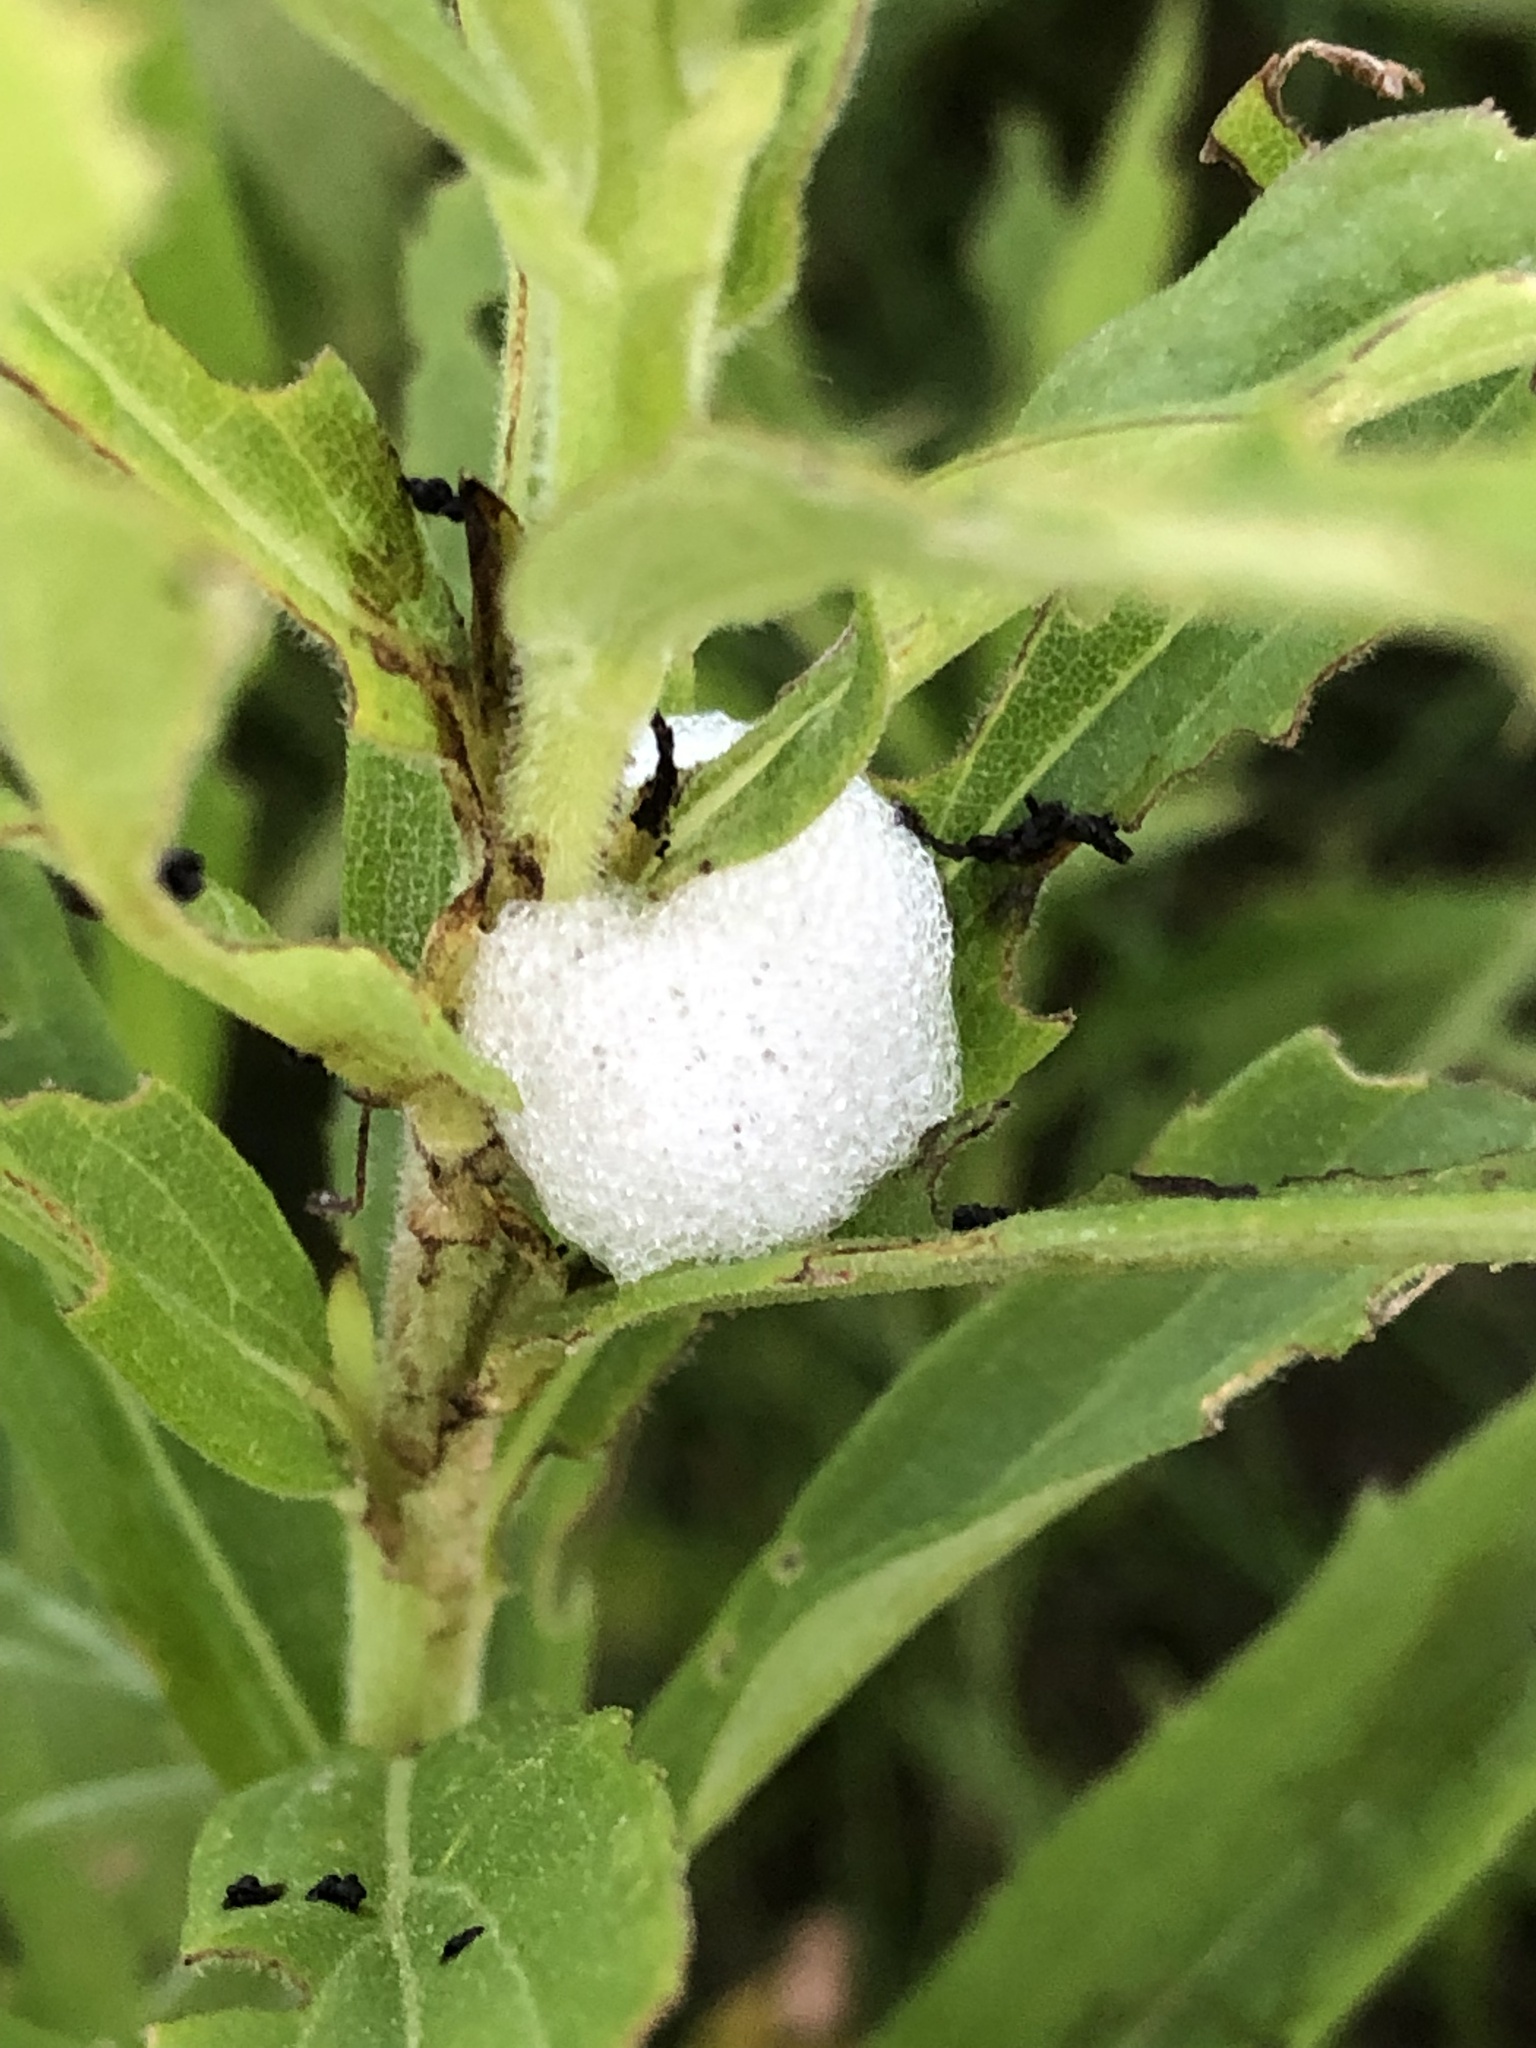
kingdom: Animalia
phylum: Arthropoda
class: Insecta
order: Hemiptera
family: Aphrophoridae
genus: Philaenus
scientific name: Philaenus spumarius
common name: Meadow spittlebug
